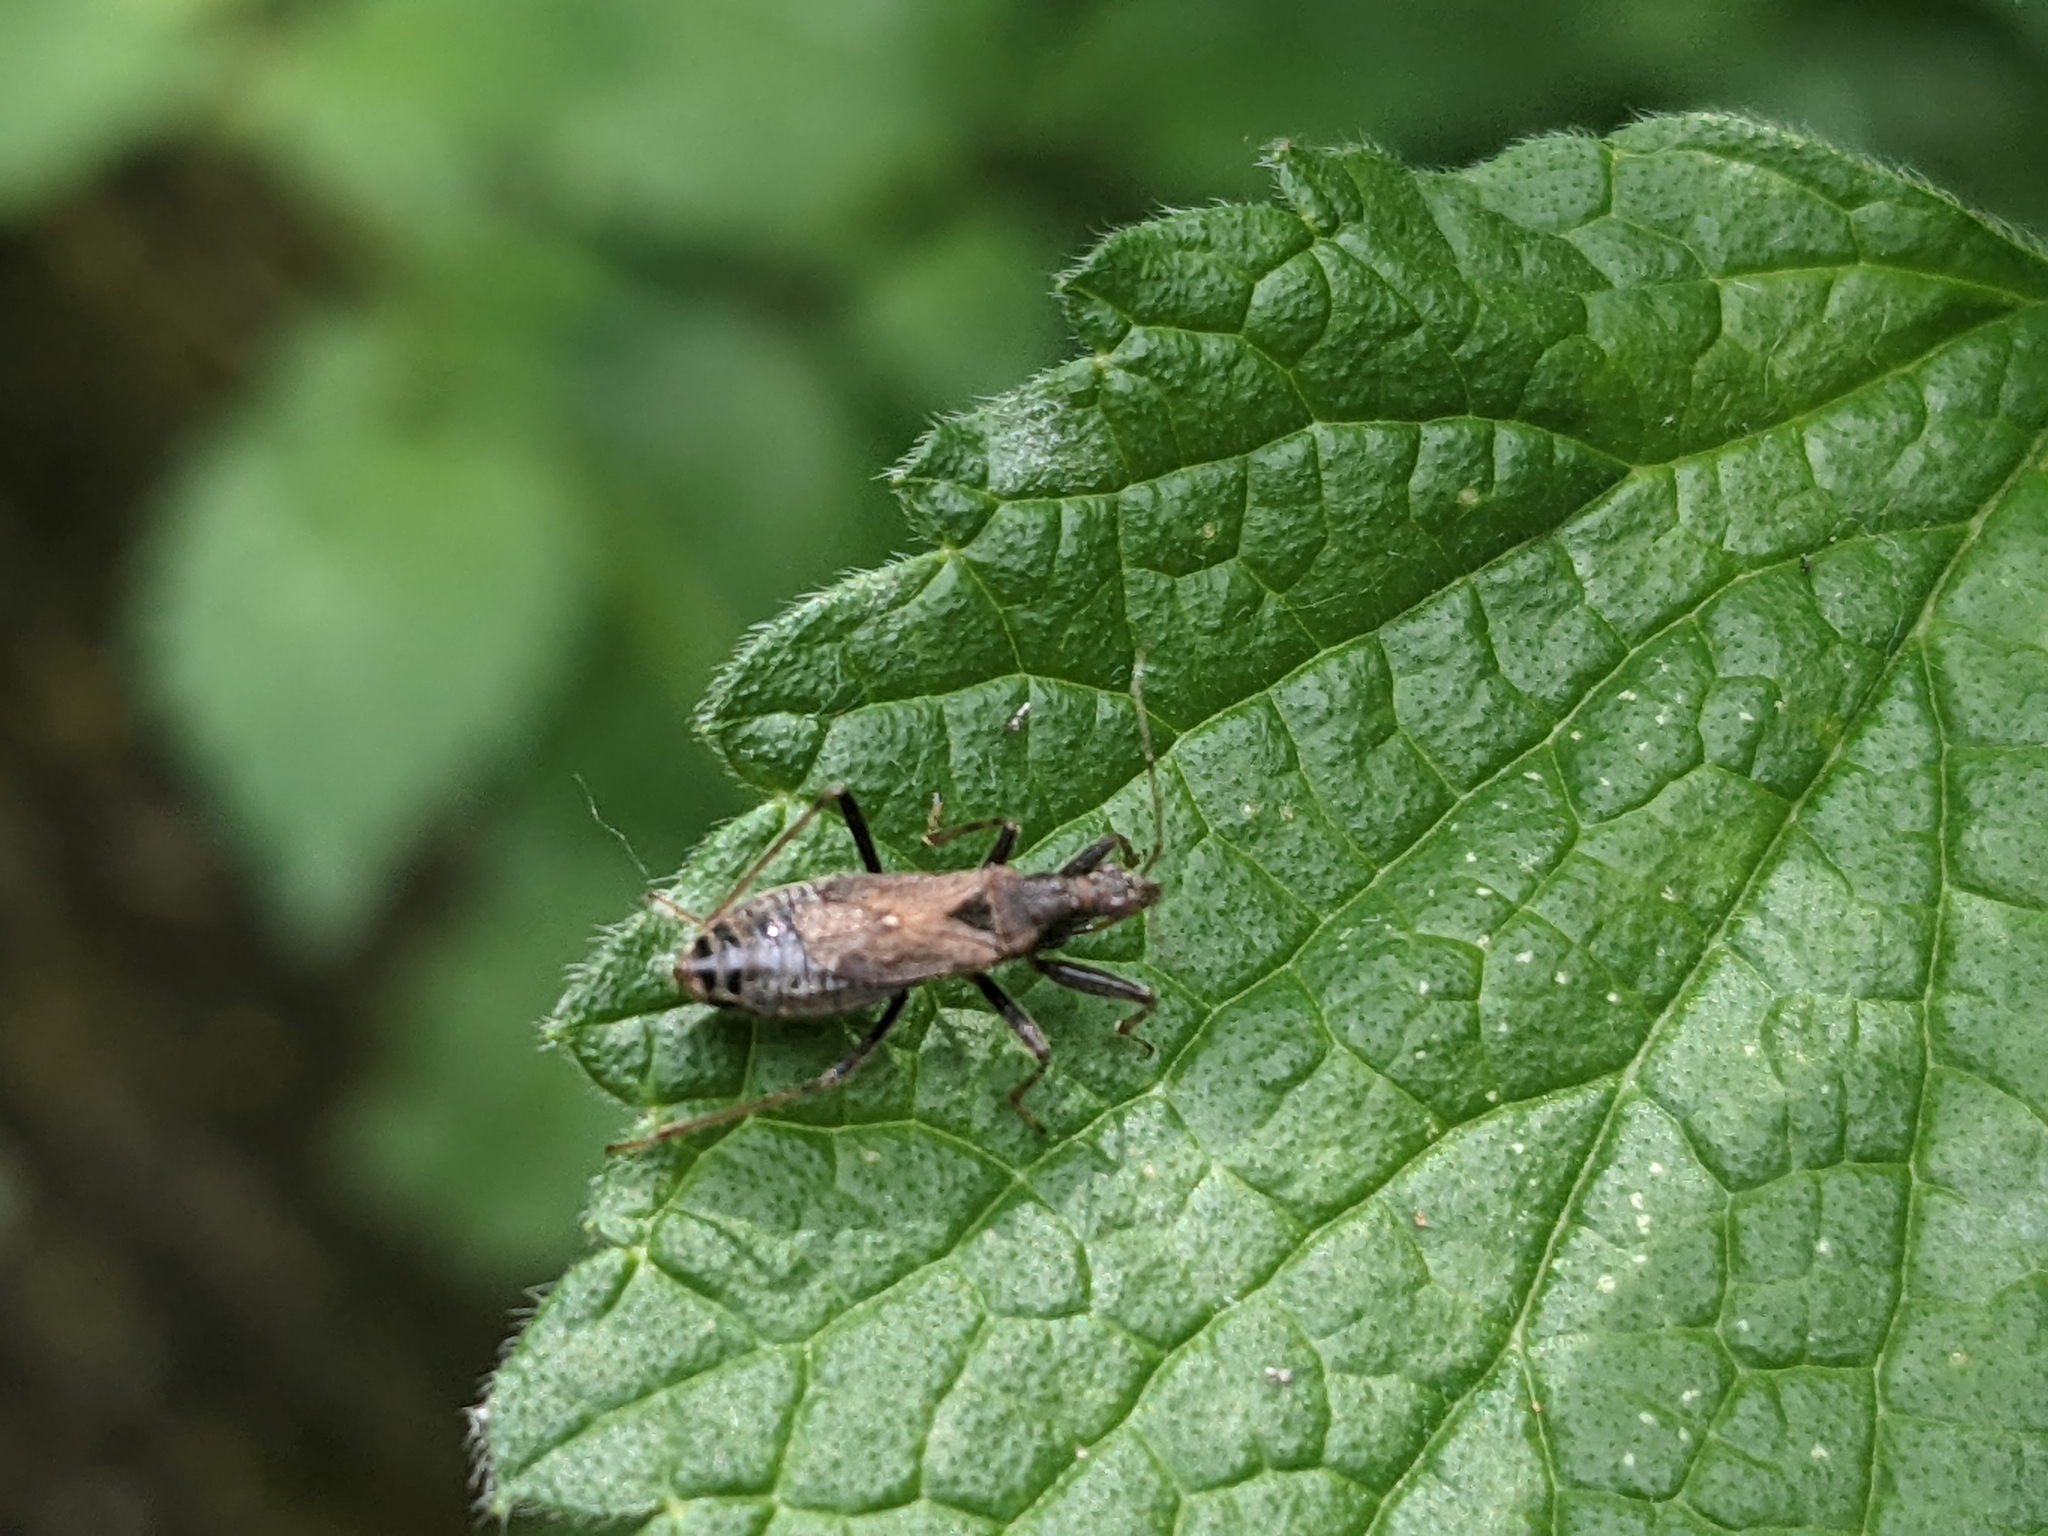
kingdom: Animalia
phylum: Arthropoda
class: Insecta
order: Hemiptera
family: Nabidae
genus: Himacerus
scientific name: Himacerus mirmicoides
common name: Ant damsel bug
